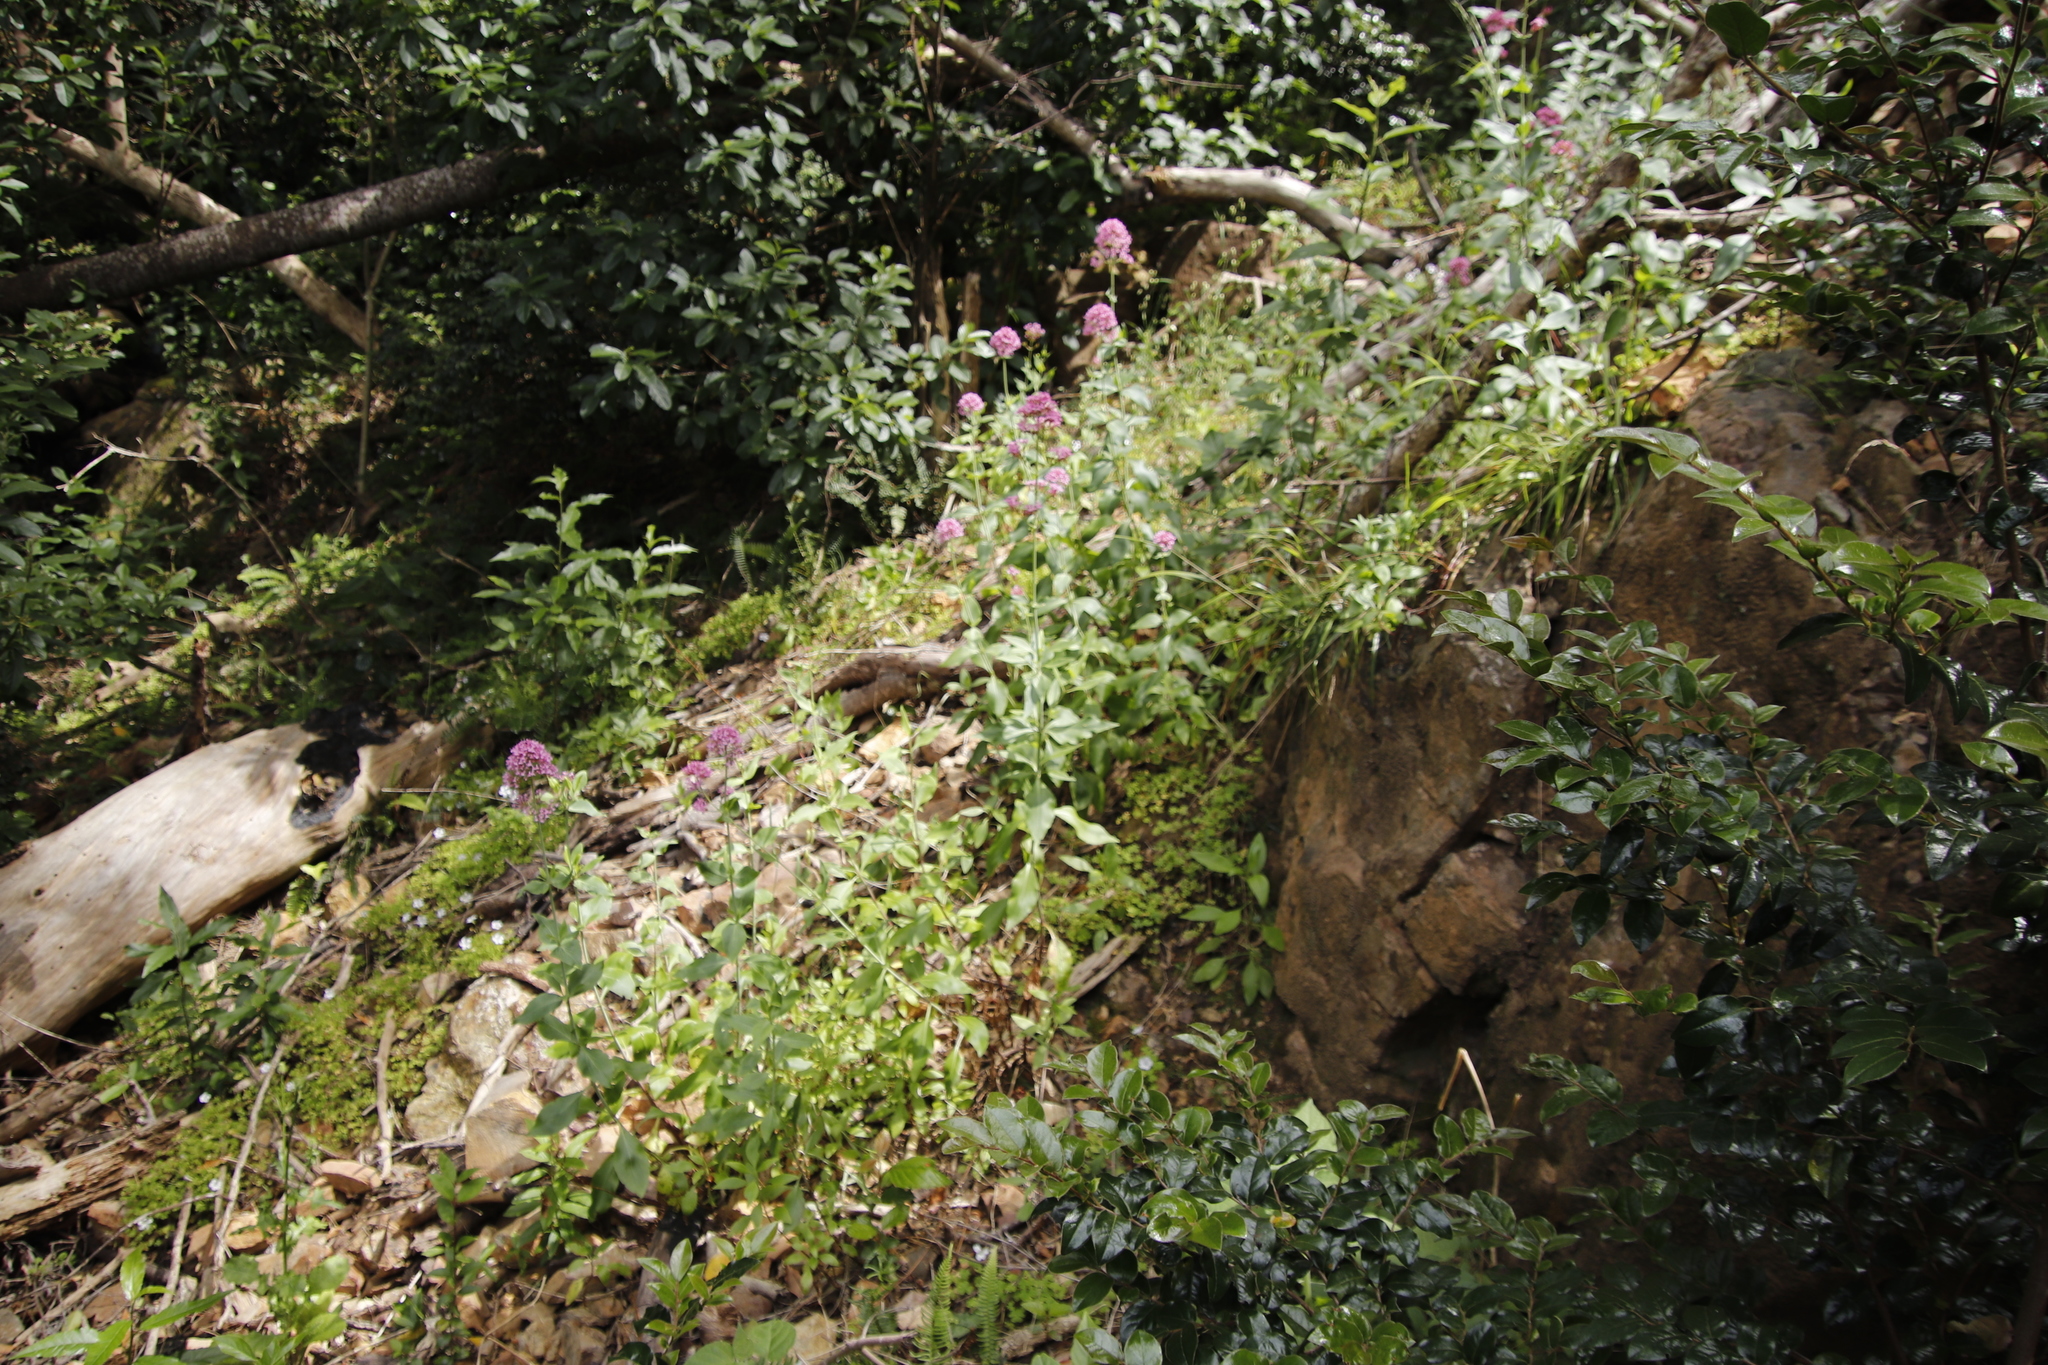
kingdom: Plantae
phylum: Tracheophyta
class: Magnoliopsida
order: Dipsacales
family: Caprifoliaceae
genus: Centranthus
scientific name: Centranthus ruber
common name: Red valerian
